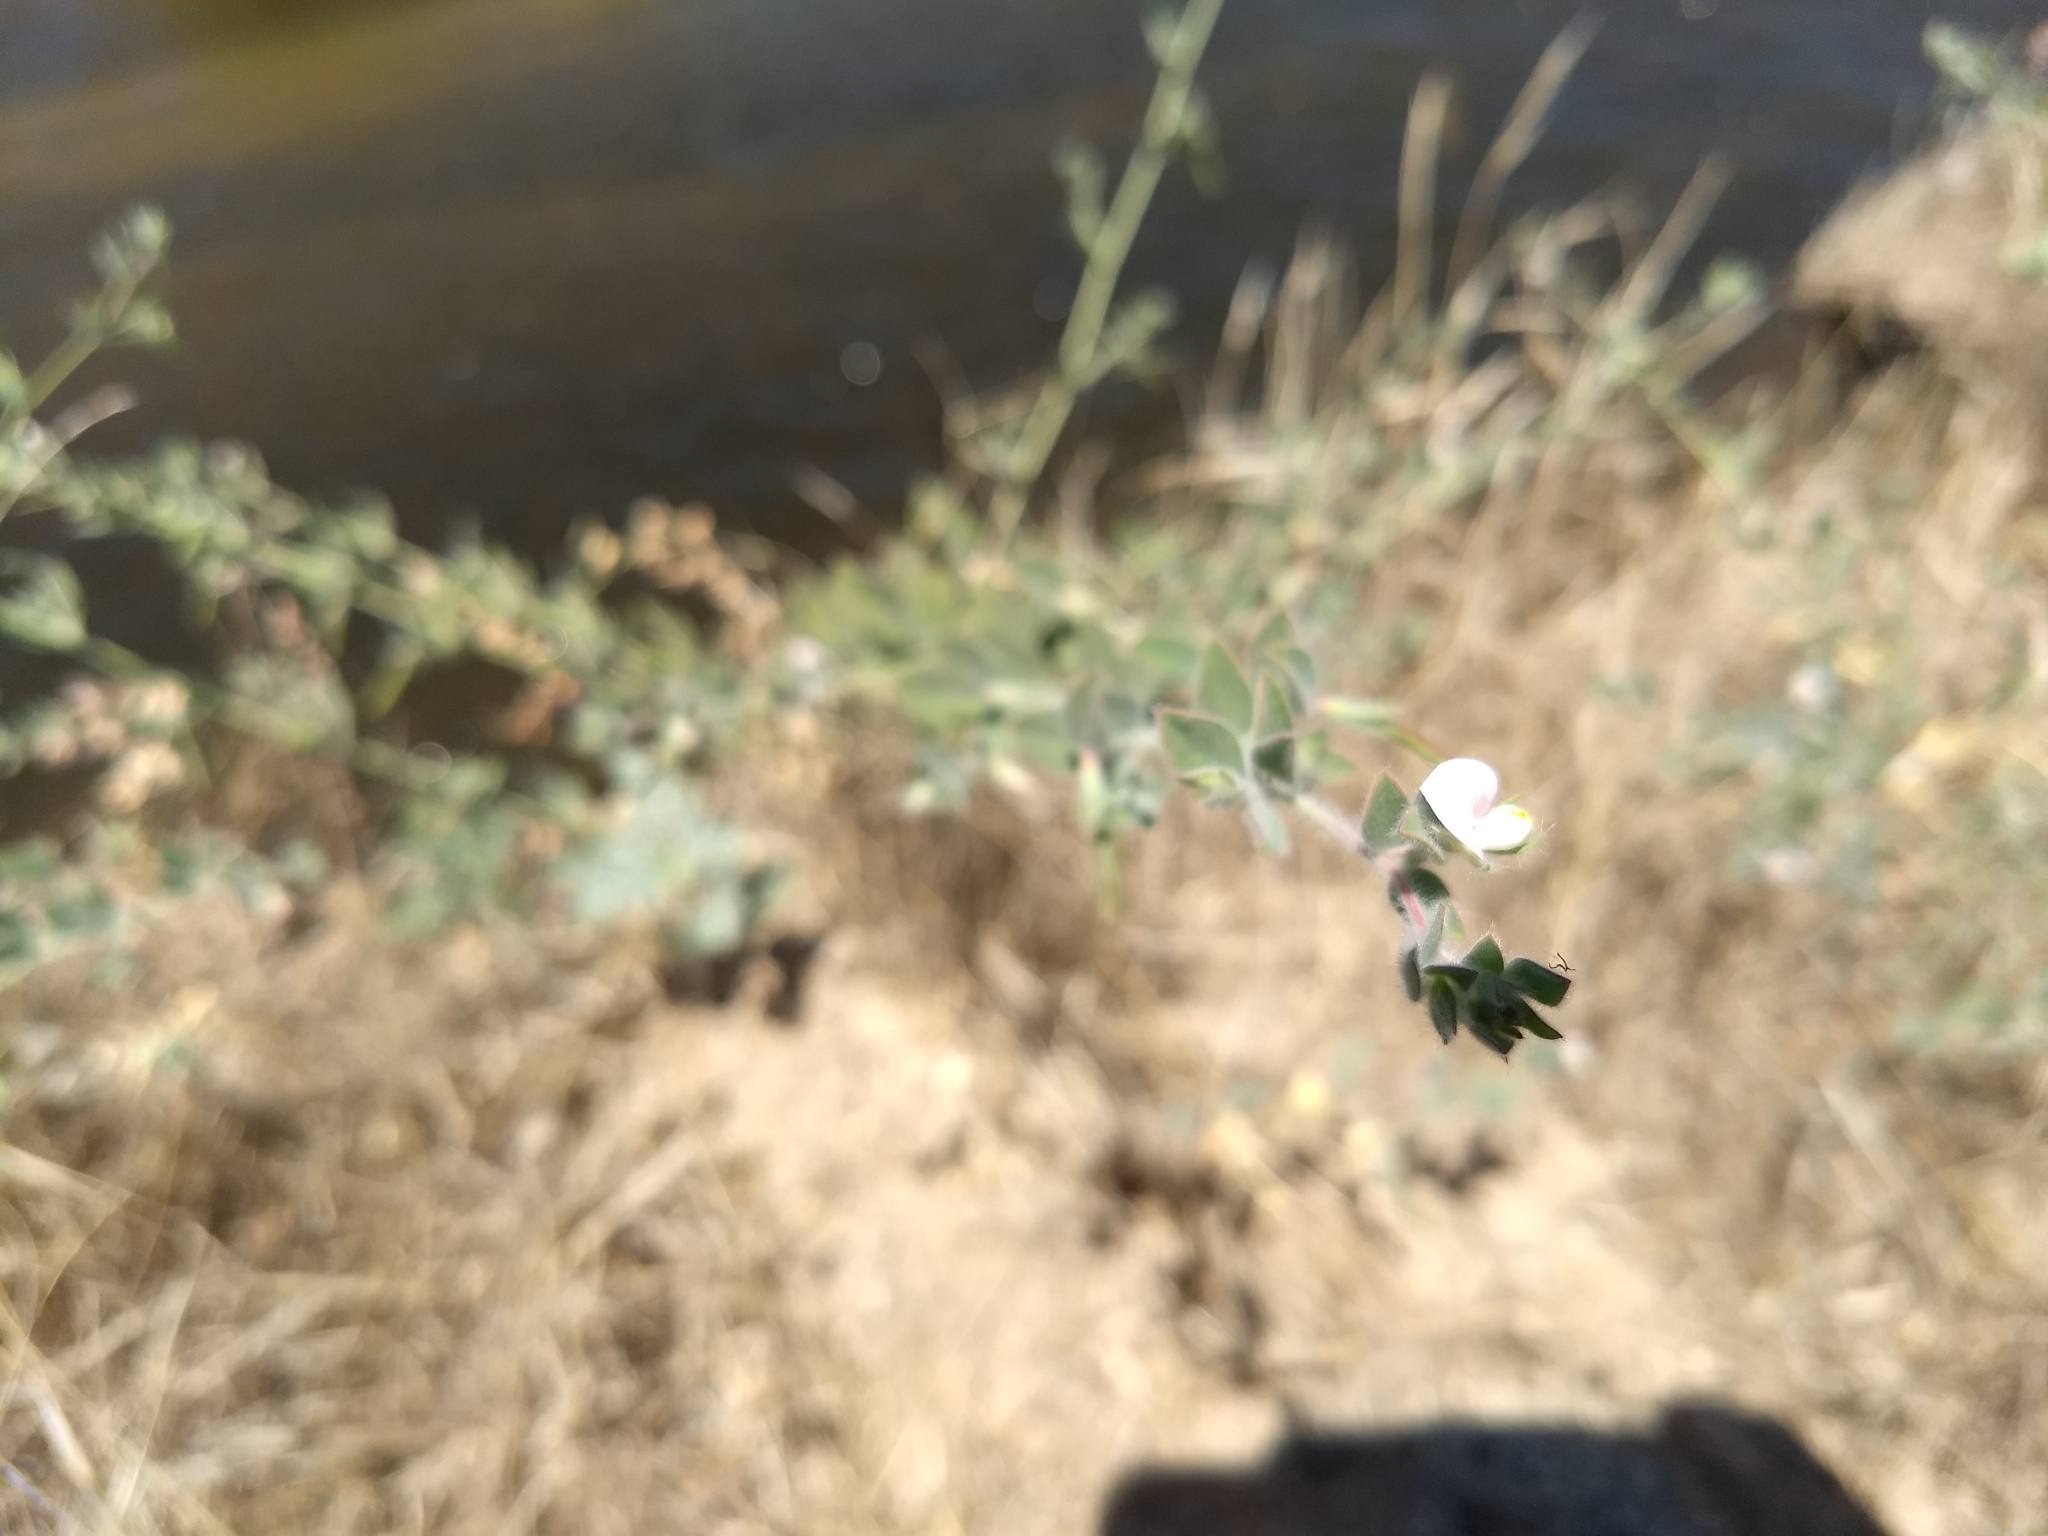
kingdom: Plantae
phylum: Tracheophyta
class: Magnoliopsida
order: Fabales
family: Fabaceae
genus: Acmispon
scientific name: Acmispon americanus
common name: American bird's-foot trefoil
